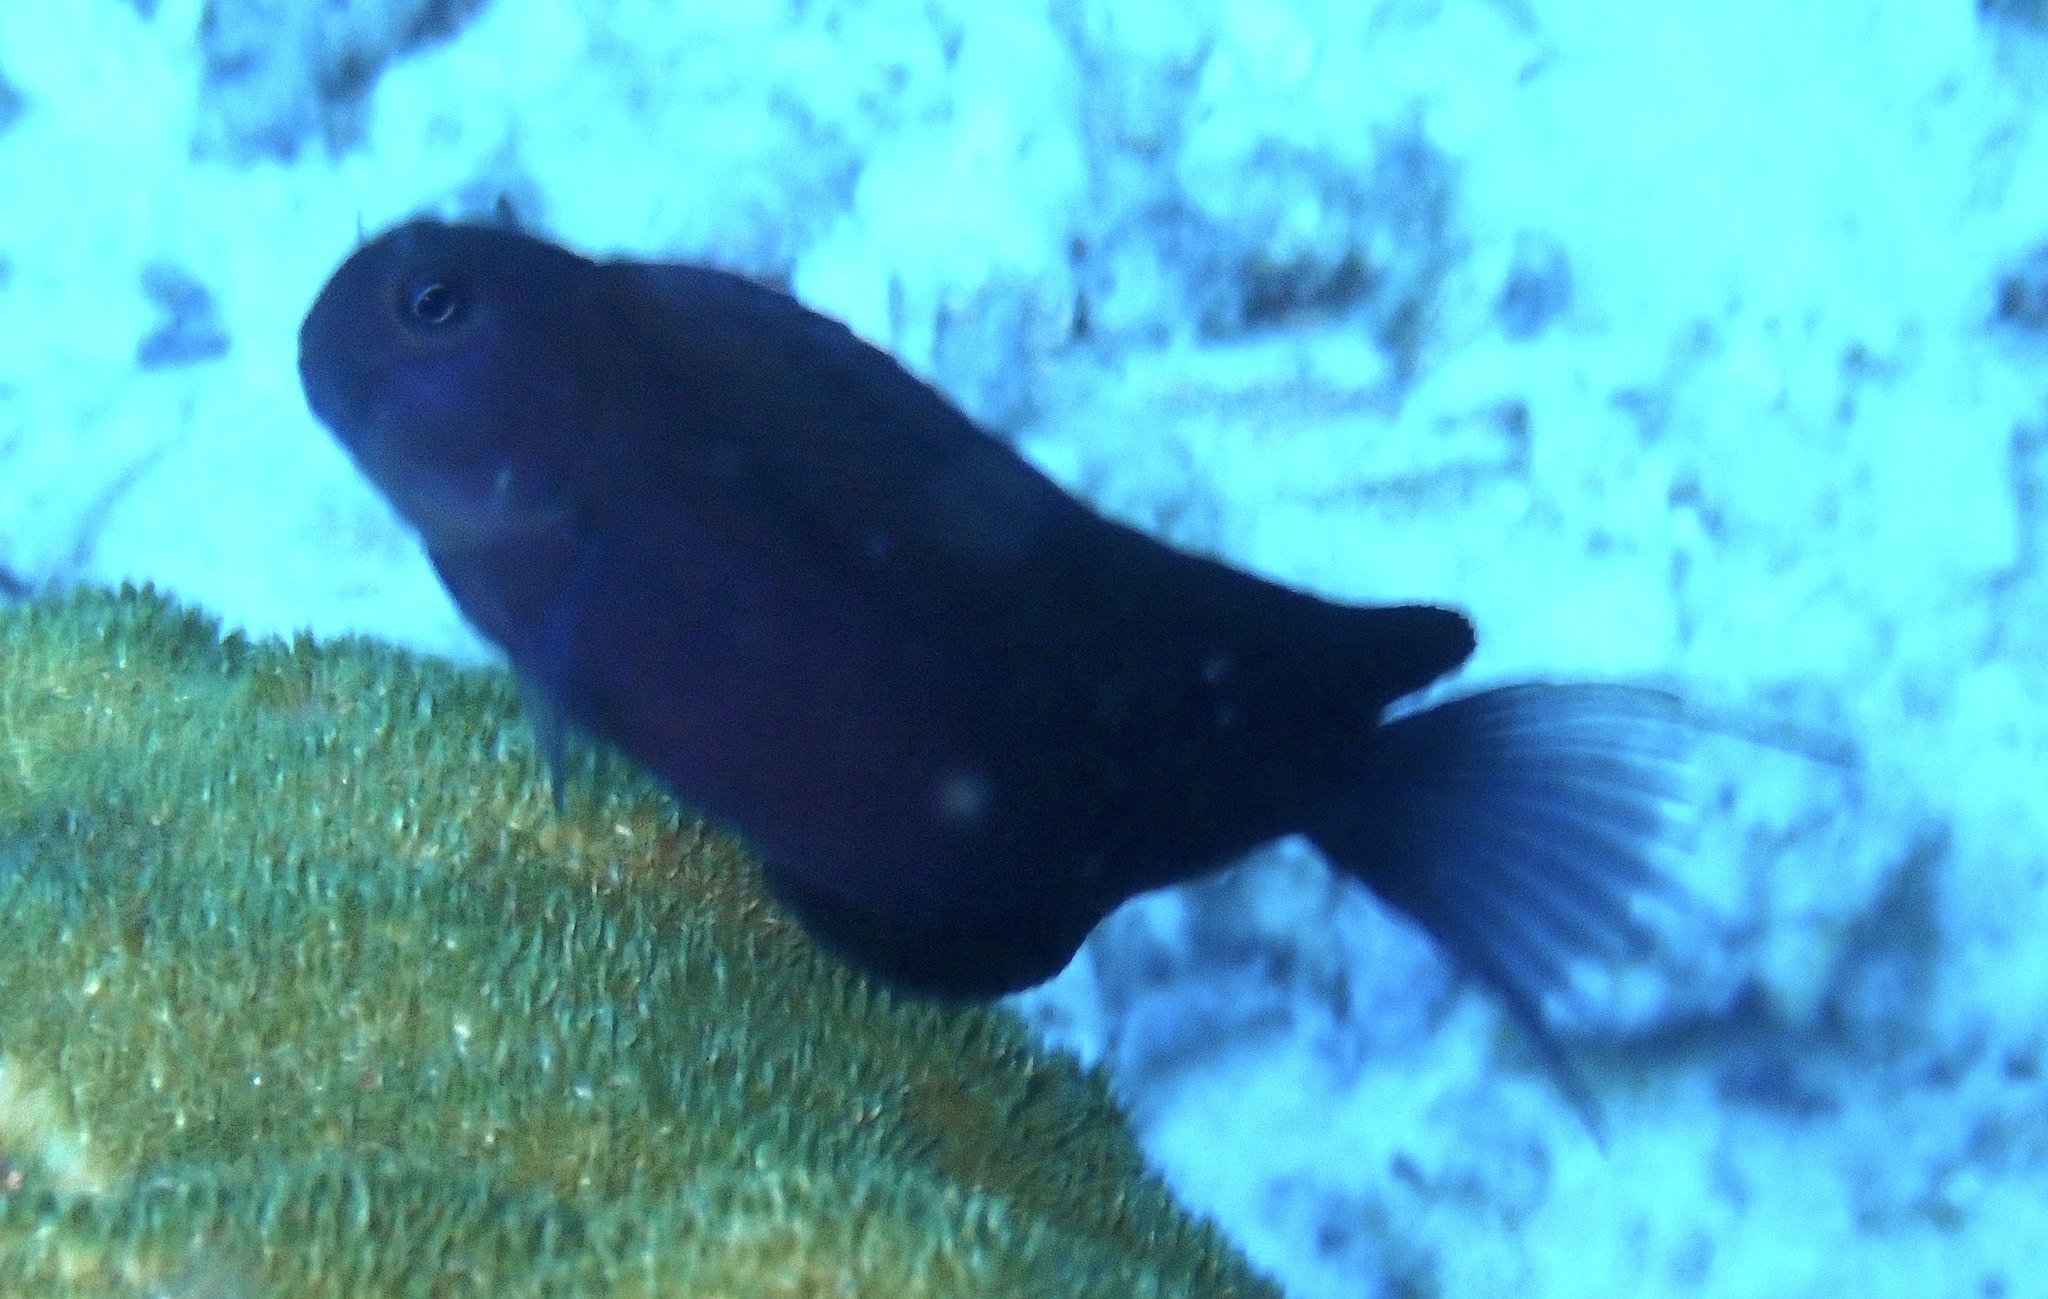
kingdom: Animalia
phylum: Chordata
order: Perciformes
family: Blenniidae
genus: Ecsenius
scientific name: Ecsenius namiyei
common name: Black comb-tooth
